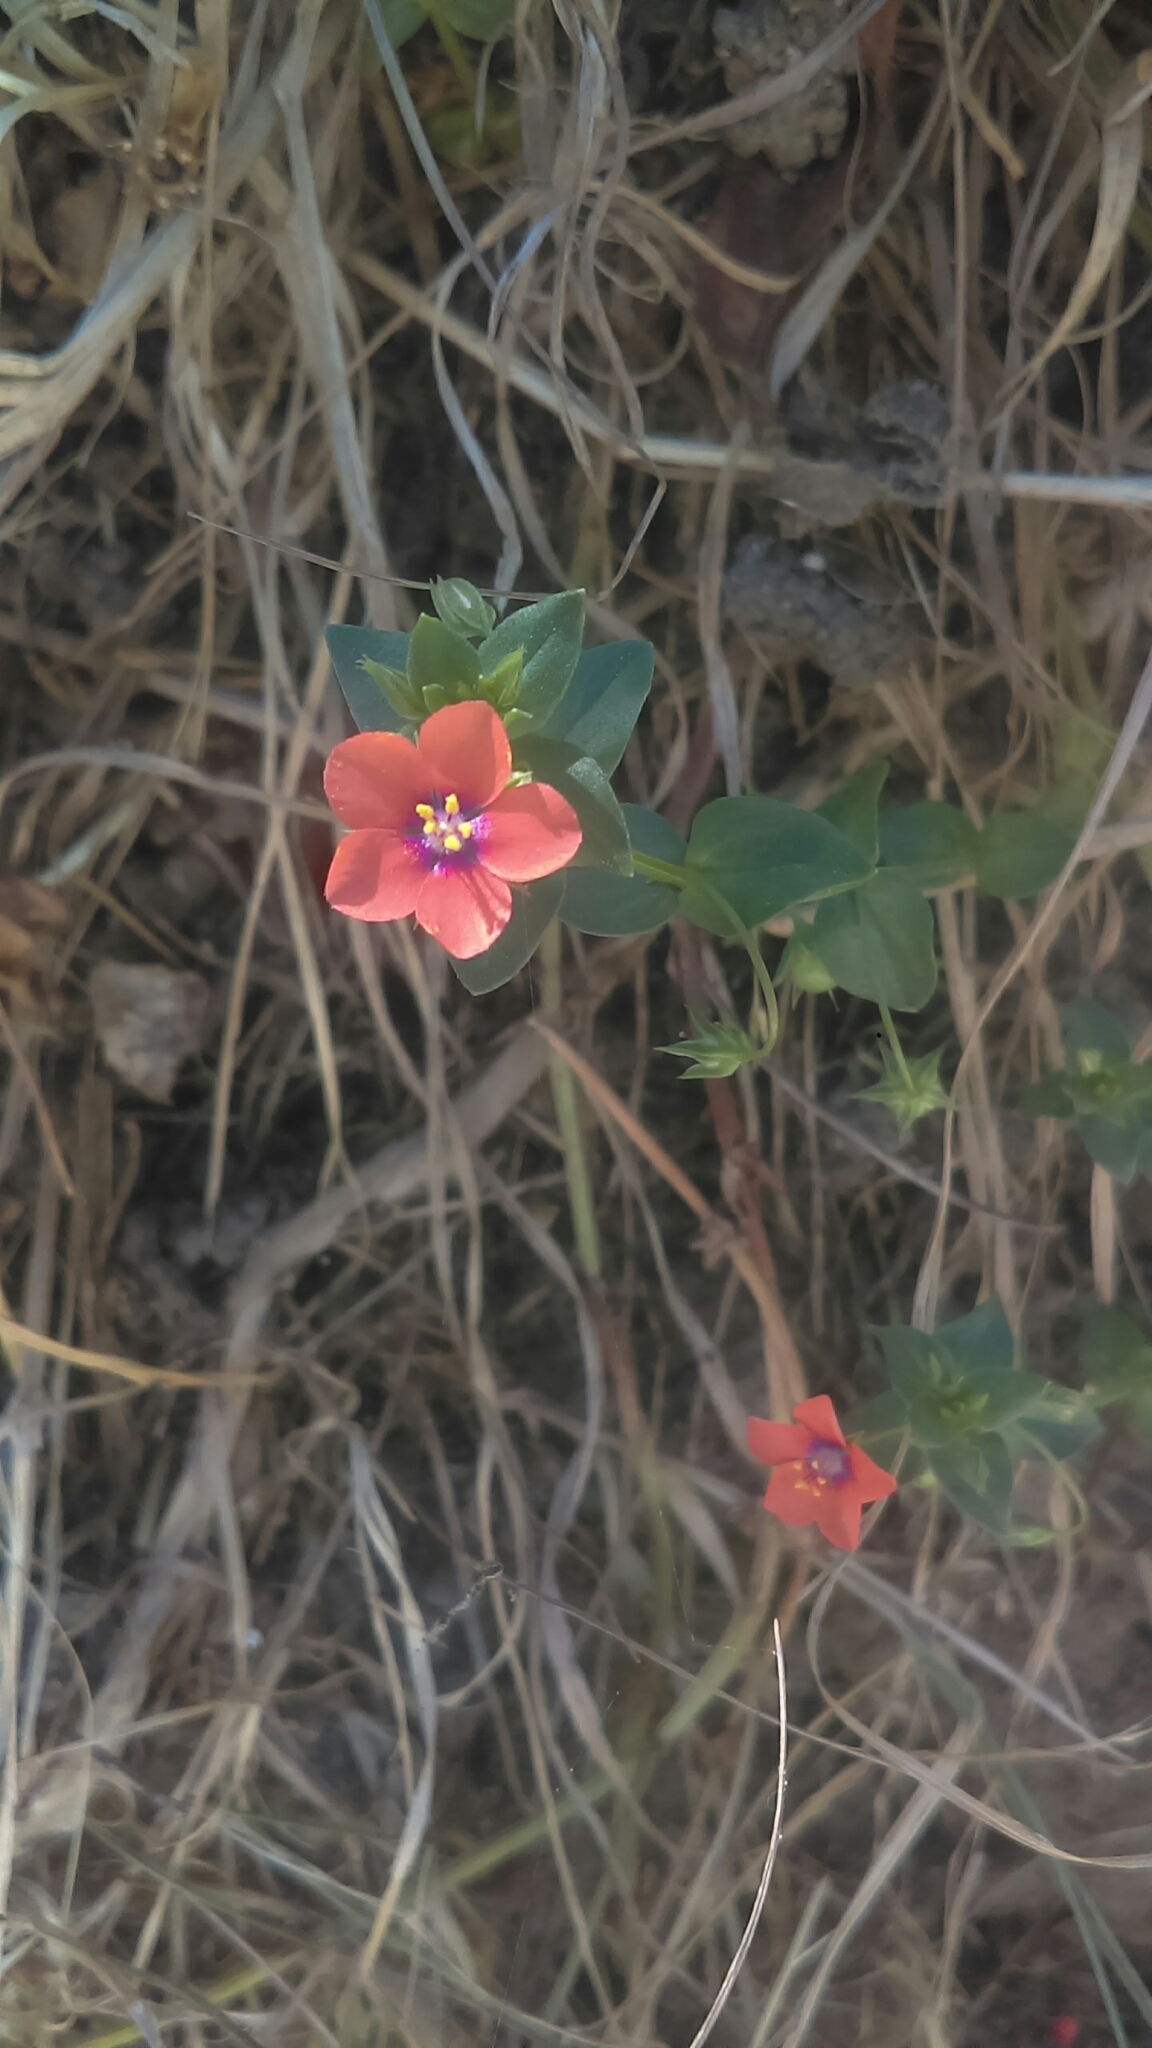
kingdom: Plantae
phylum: Tracheophyta
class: Magnoliopsida
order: Ericales
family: Primulaceae
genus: Lysimachia
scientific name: Lysimachia arvensis
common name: Scarlet pimpernel
